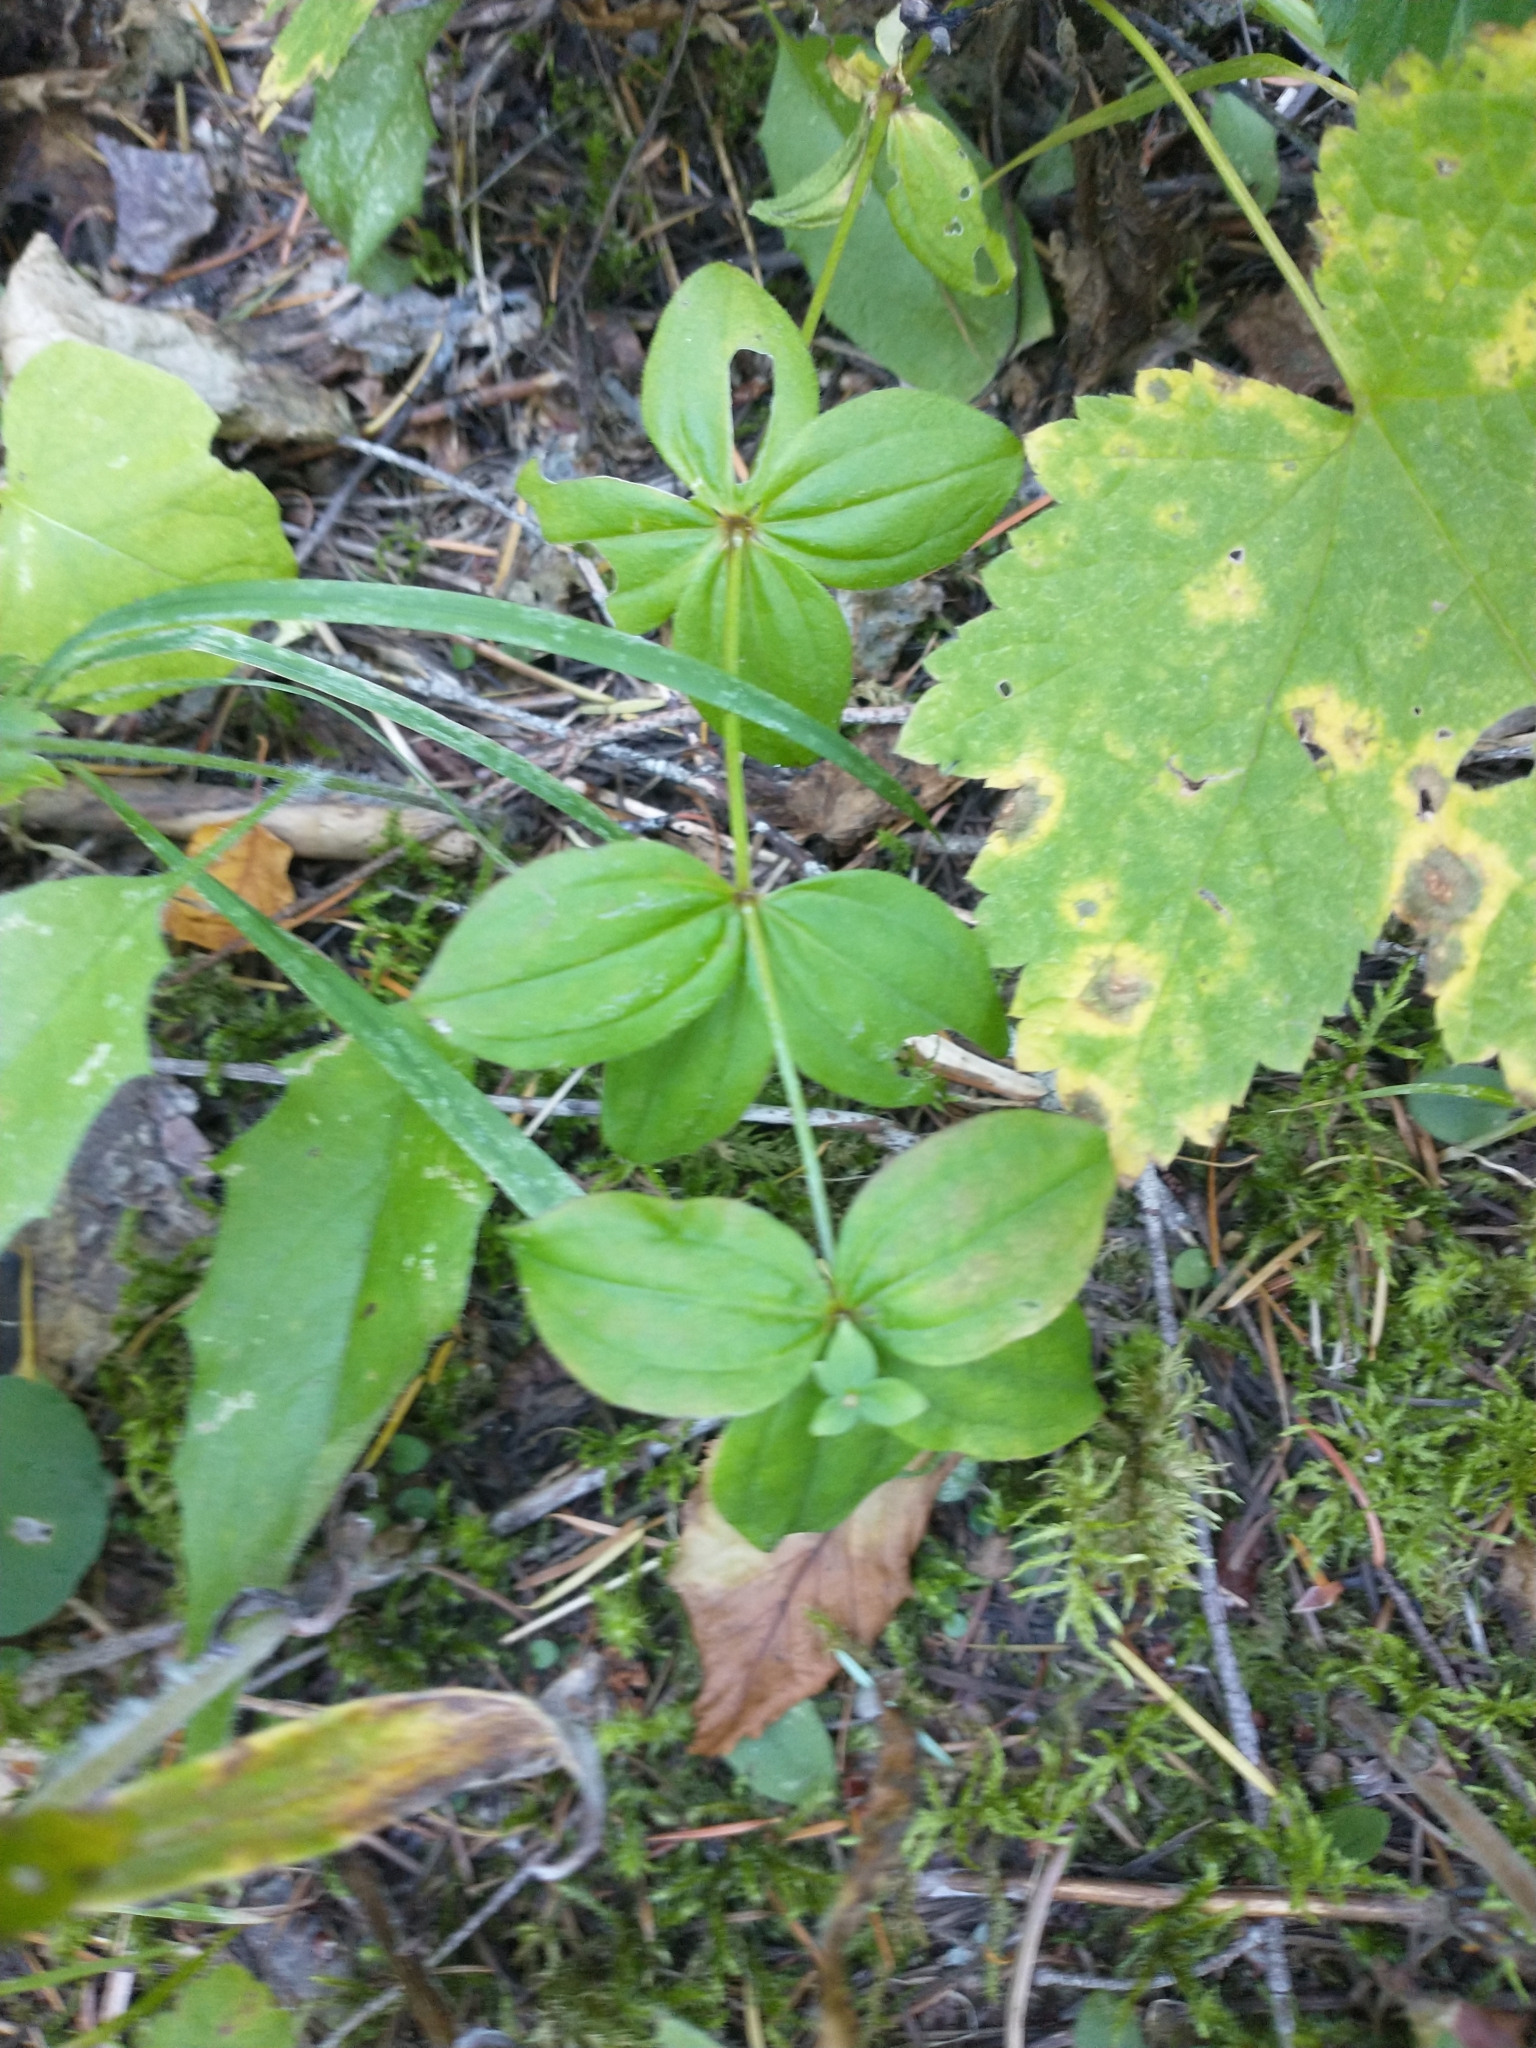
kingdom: Plantae
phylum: Tracheophyta
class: Magnoliopsida
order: Gentianales
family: Rubiaceae
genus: Galium
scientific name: Galium oreganum
